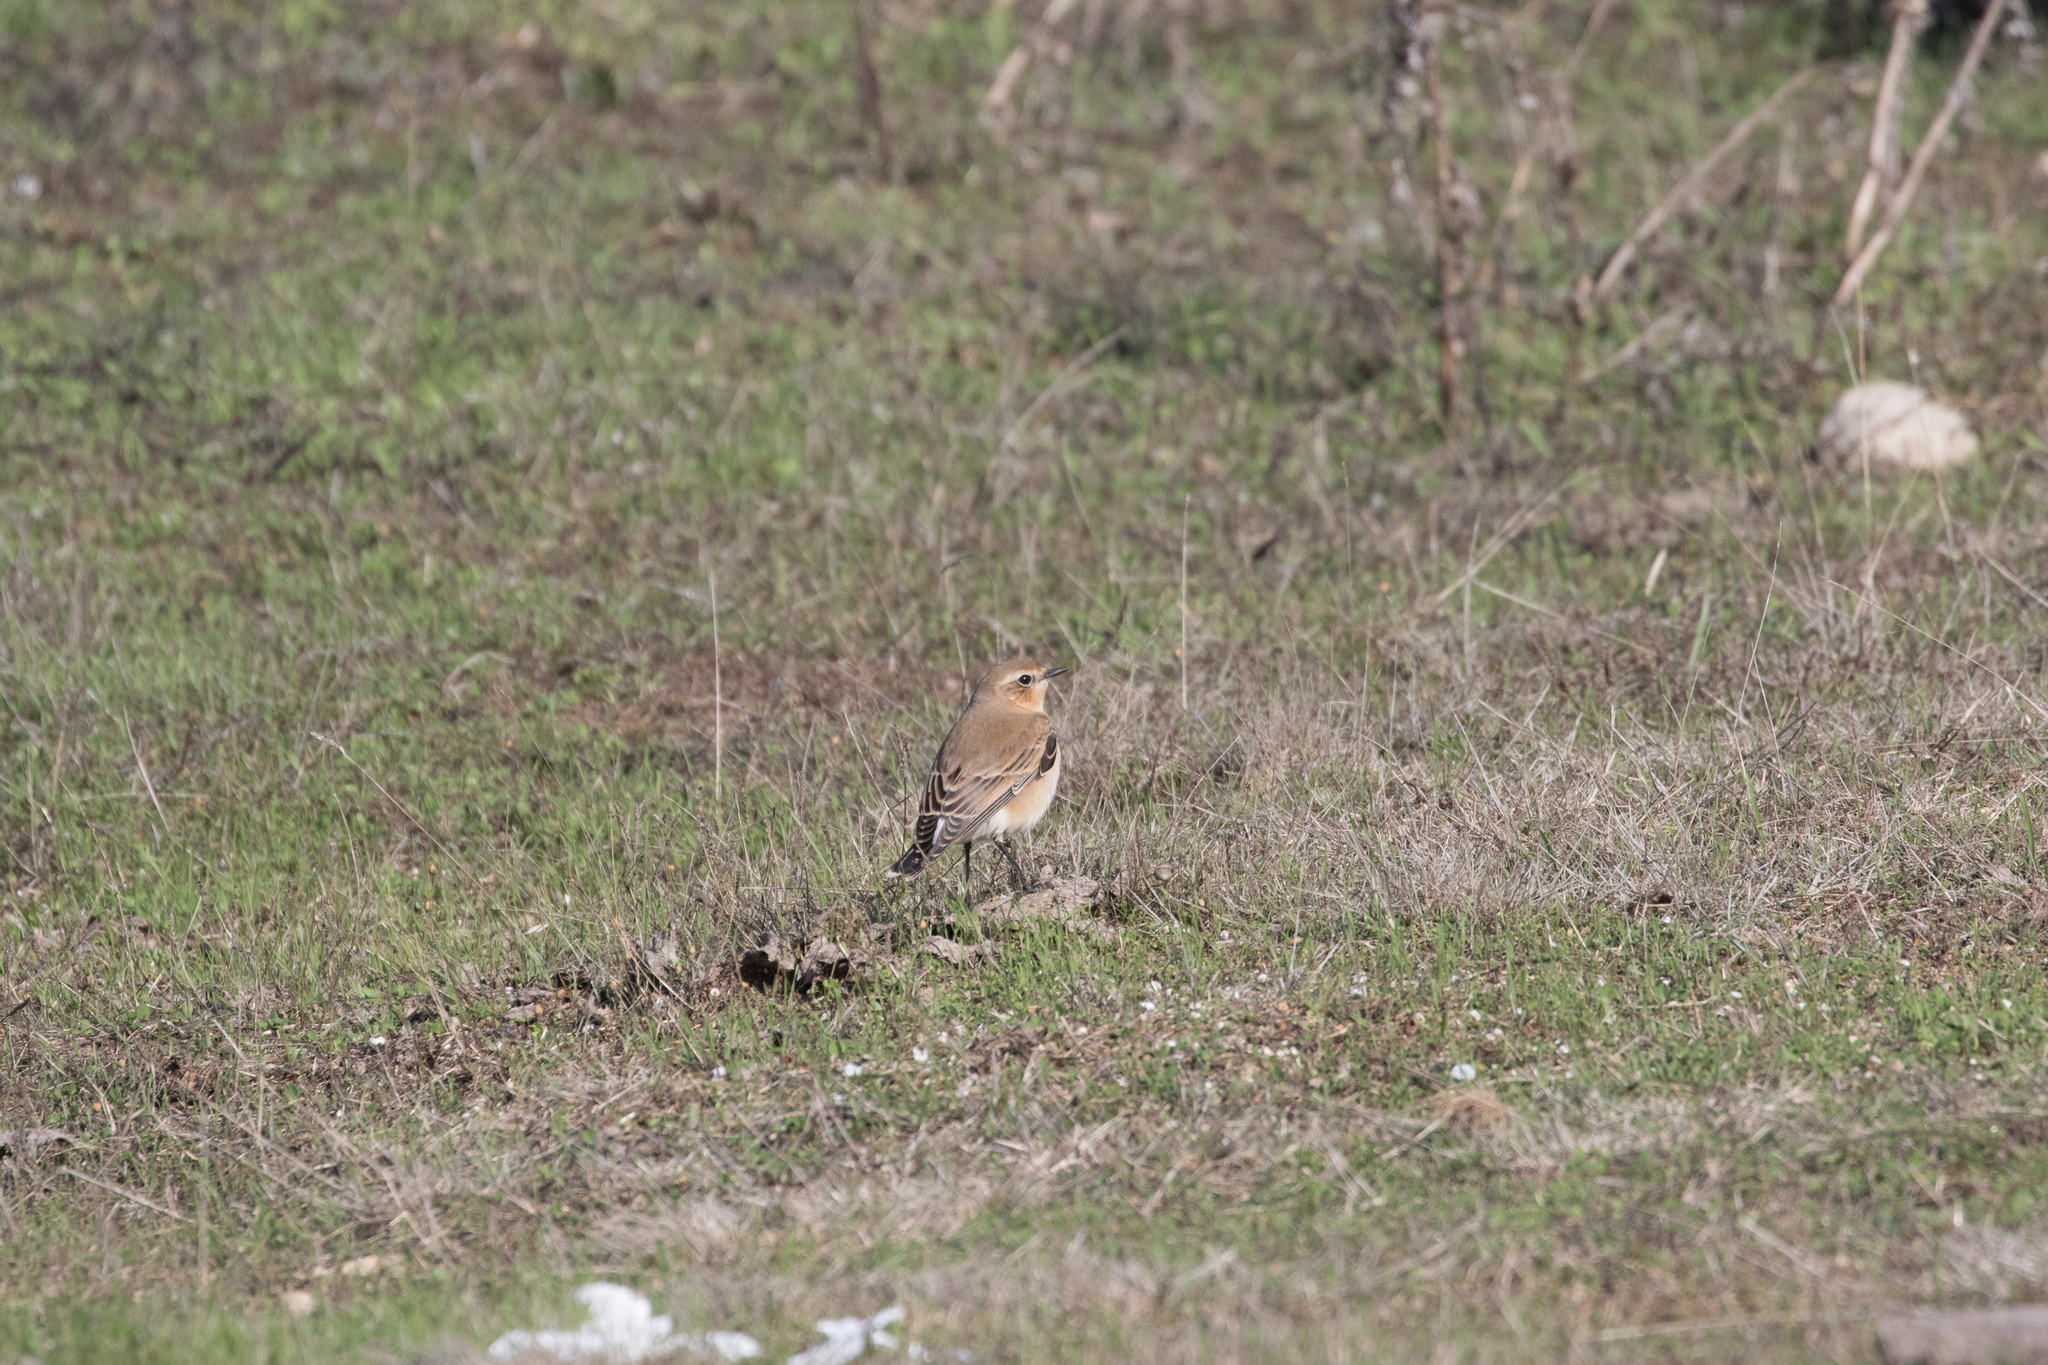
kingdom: Animalia
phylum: Chordata
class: Aves
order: Passeriformes
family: Muscicapidae
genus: Oenanthe
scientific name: Oenanthe oenanthe
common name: Northern wheatear
